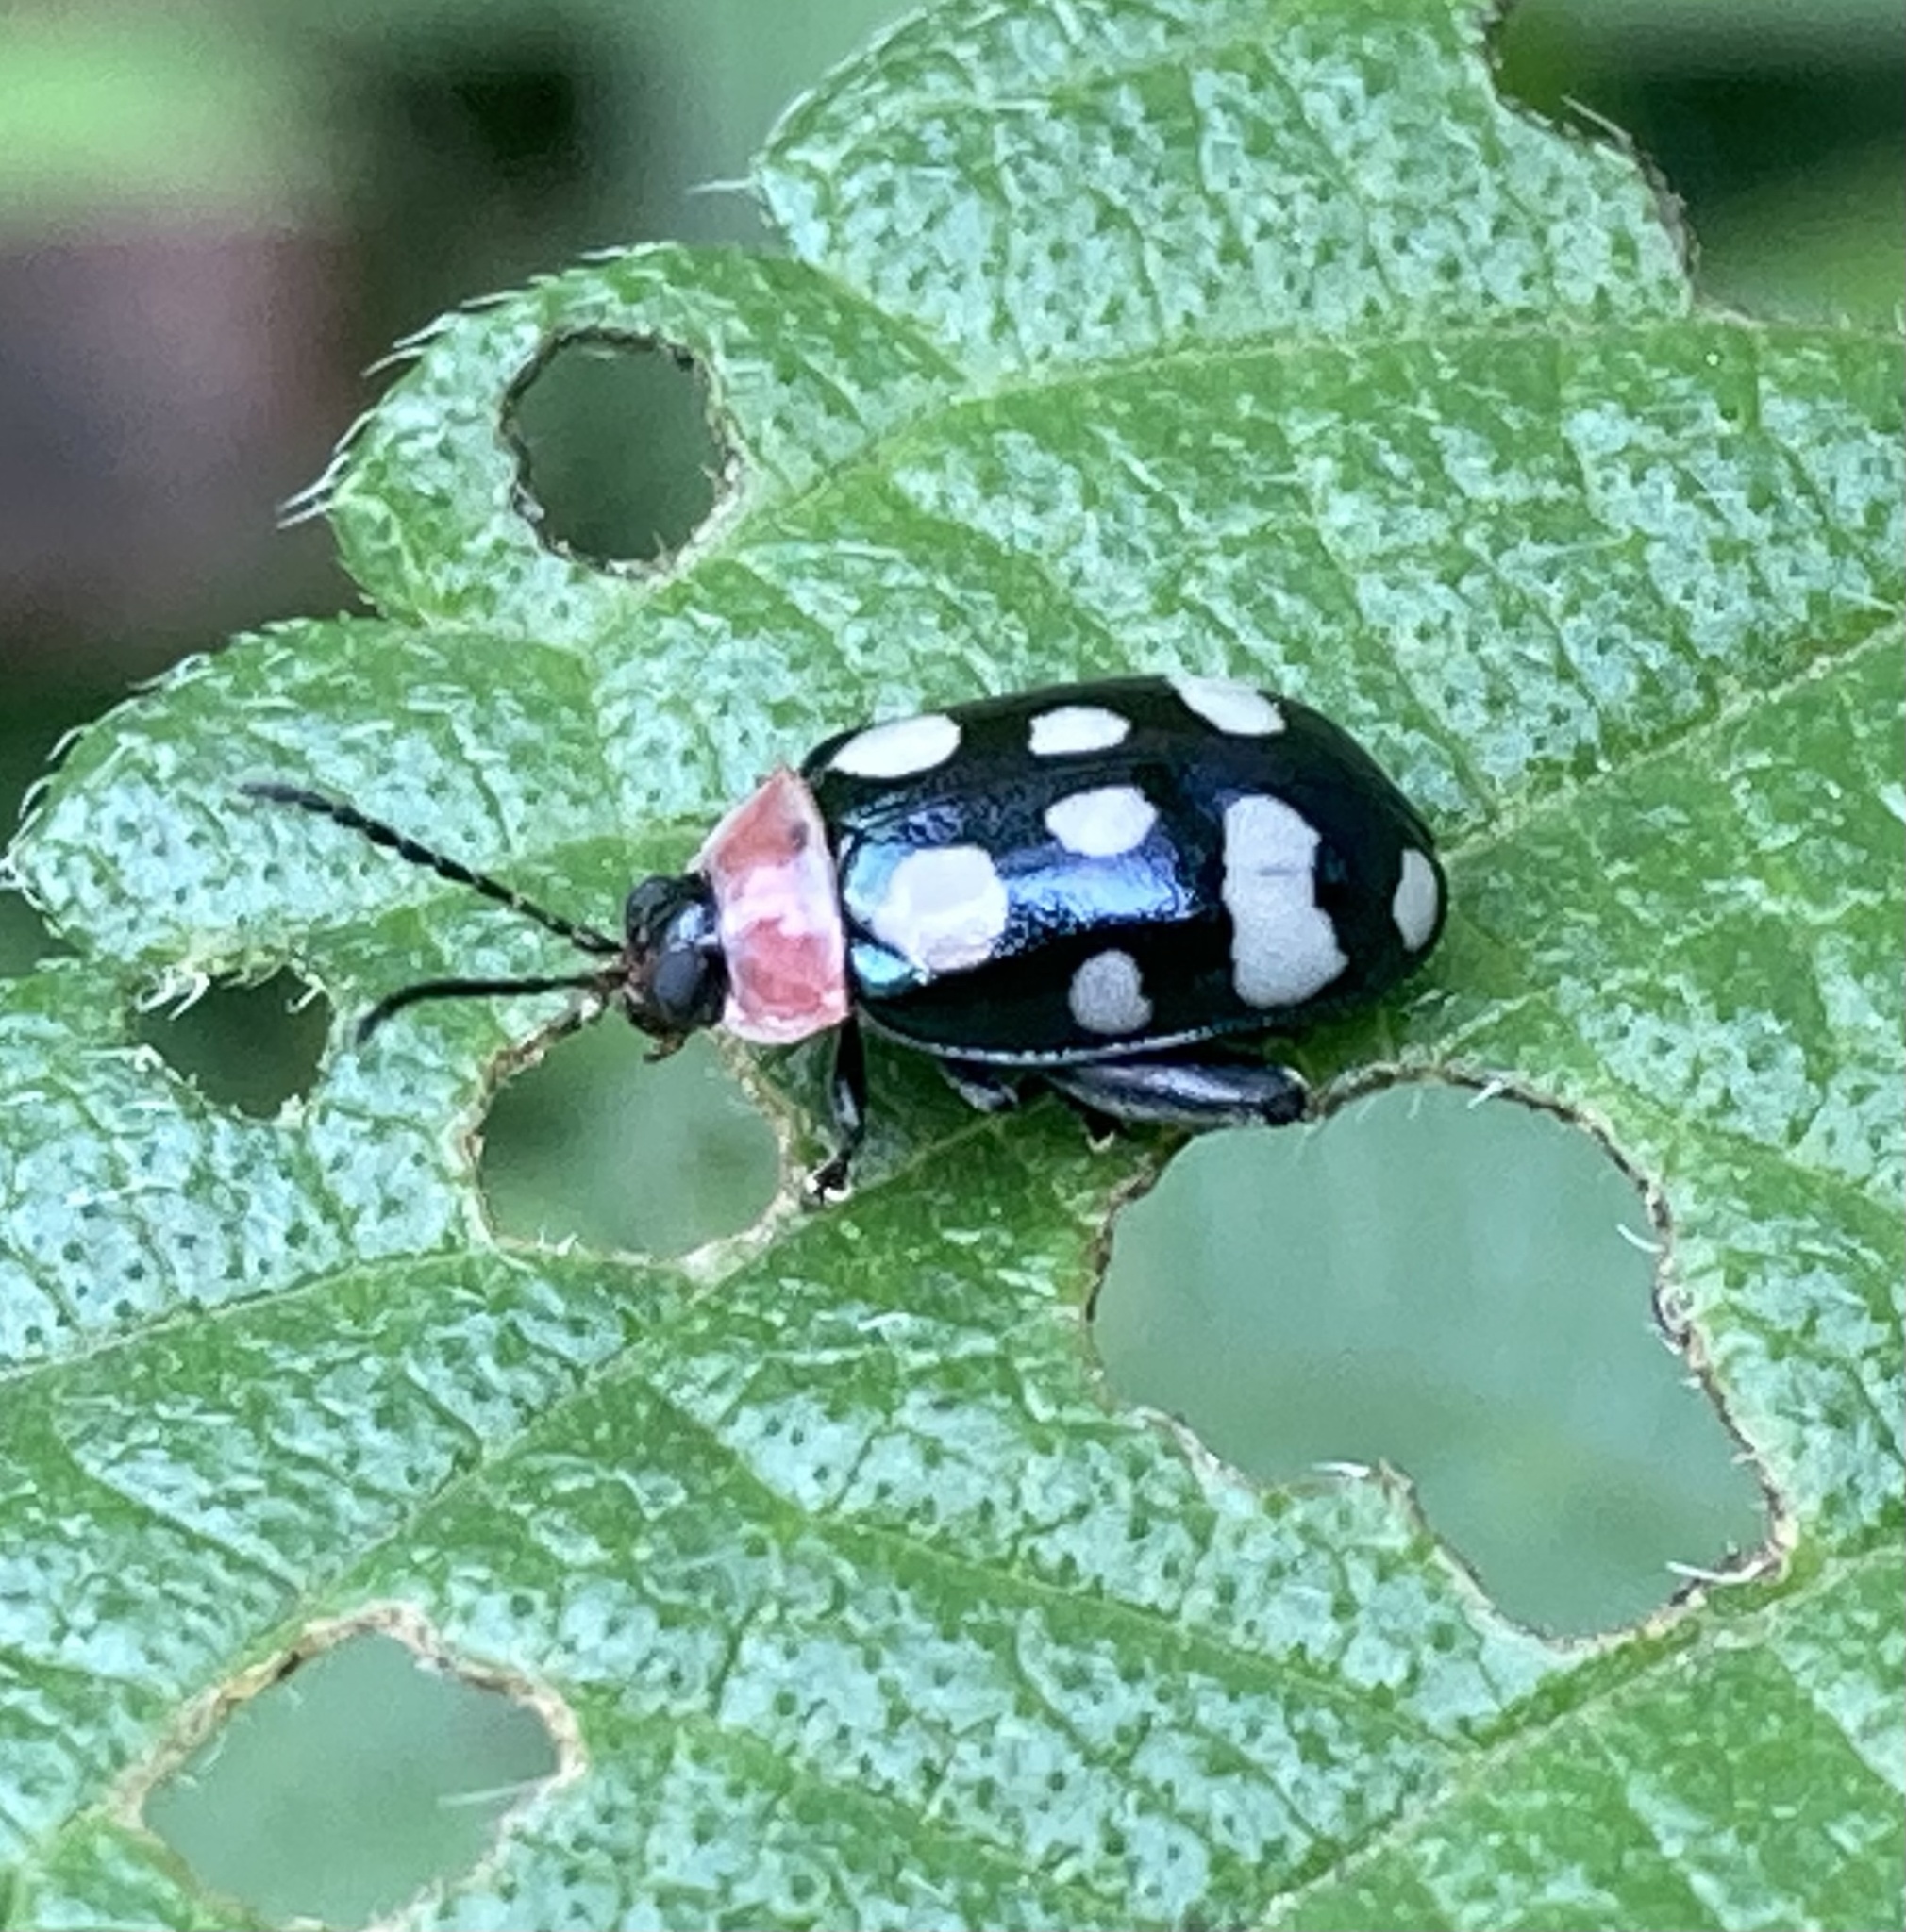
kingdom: Animalia
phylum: Arthropoda
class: Insecta
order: Coleoptera
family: Chrysomelidae
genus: Alagoasa
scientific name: Alagoasa trifasciata
